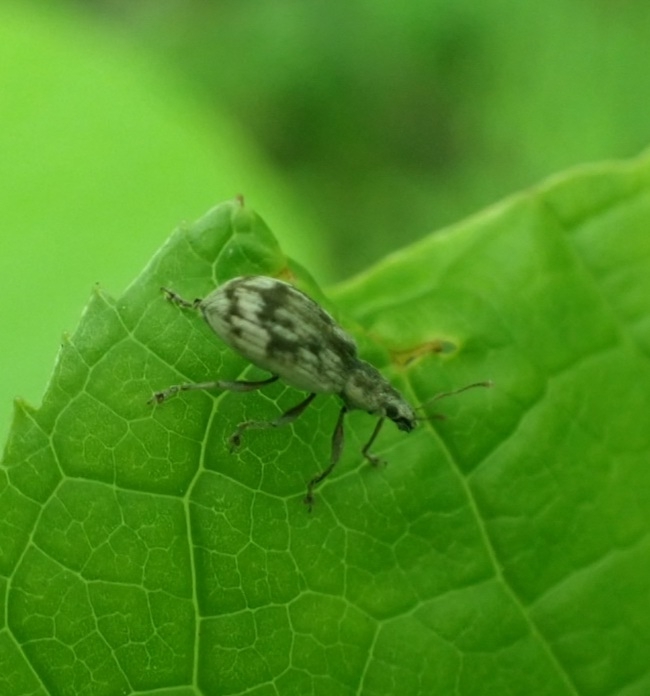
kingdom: Animalia
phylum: Arthropoda
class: Insecta
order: Coleoptera
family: Curculionidae
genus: Polydrusus
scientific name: Polydrusus tereticollis
